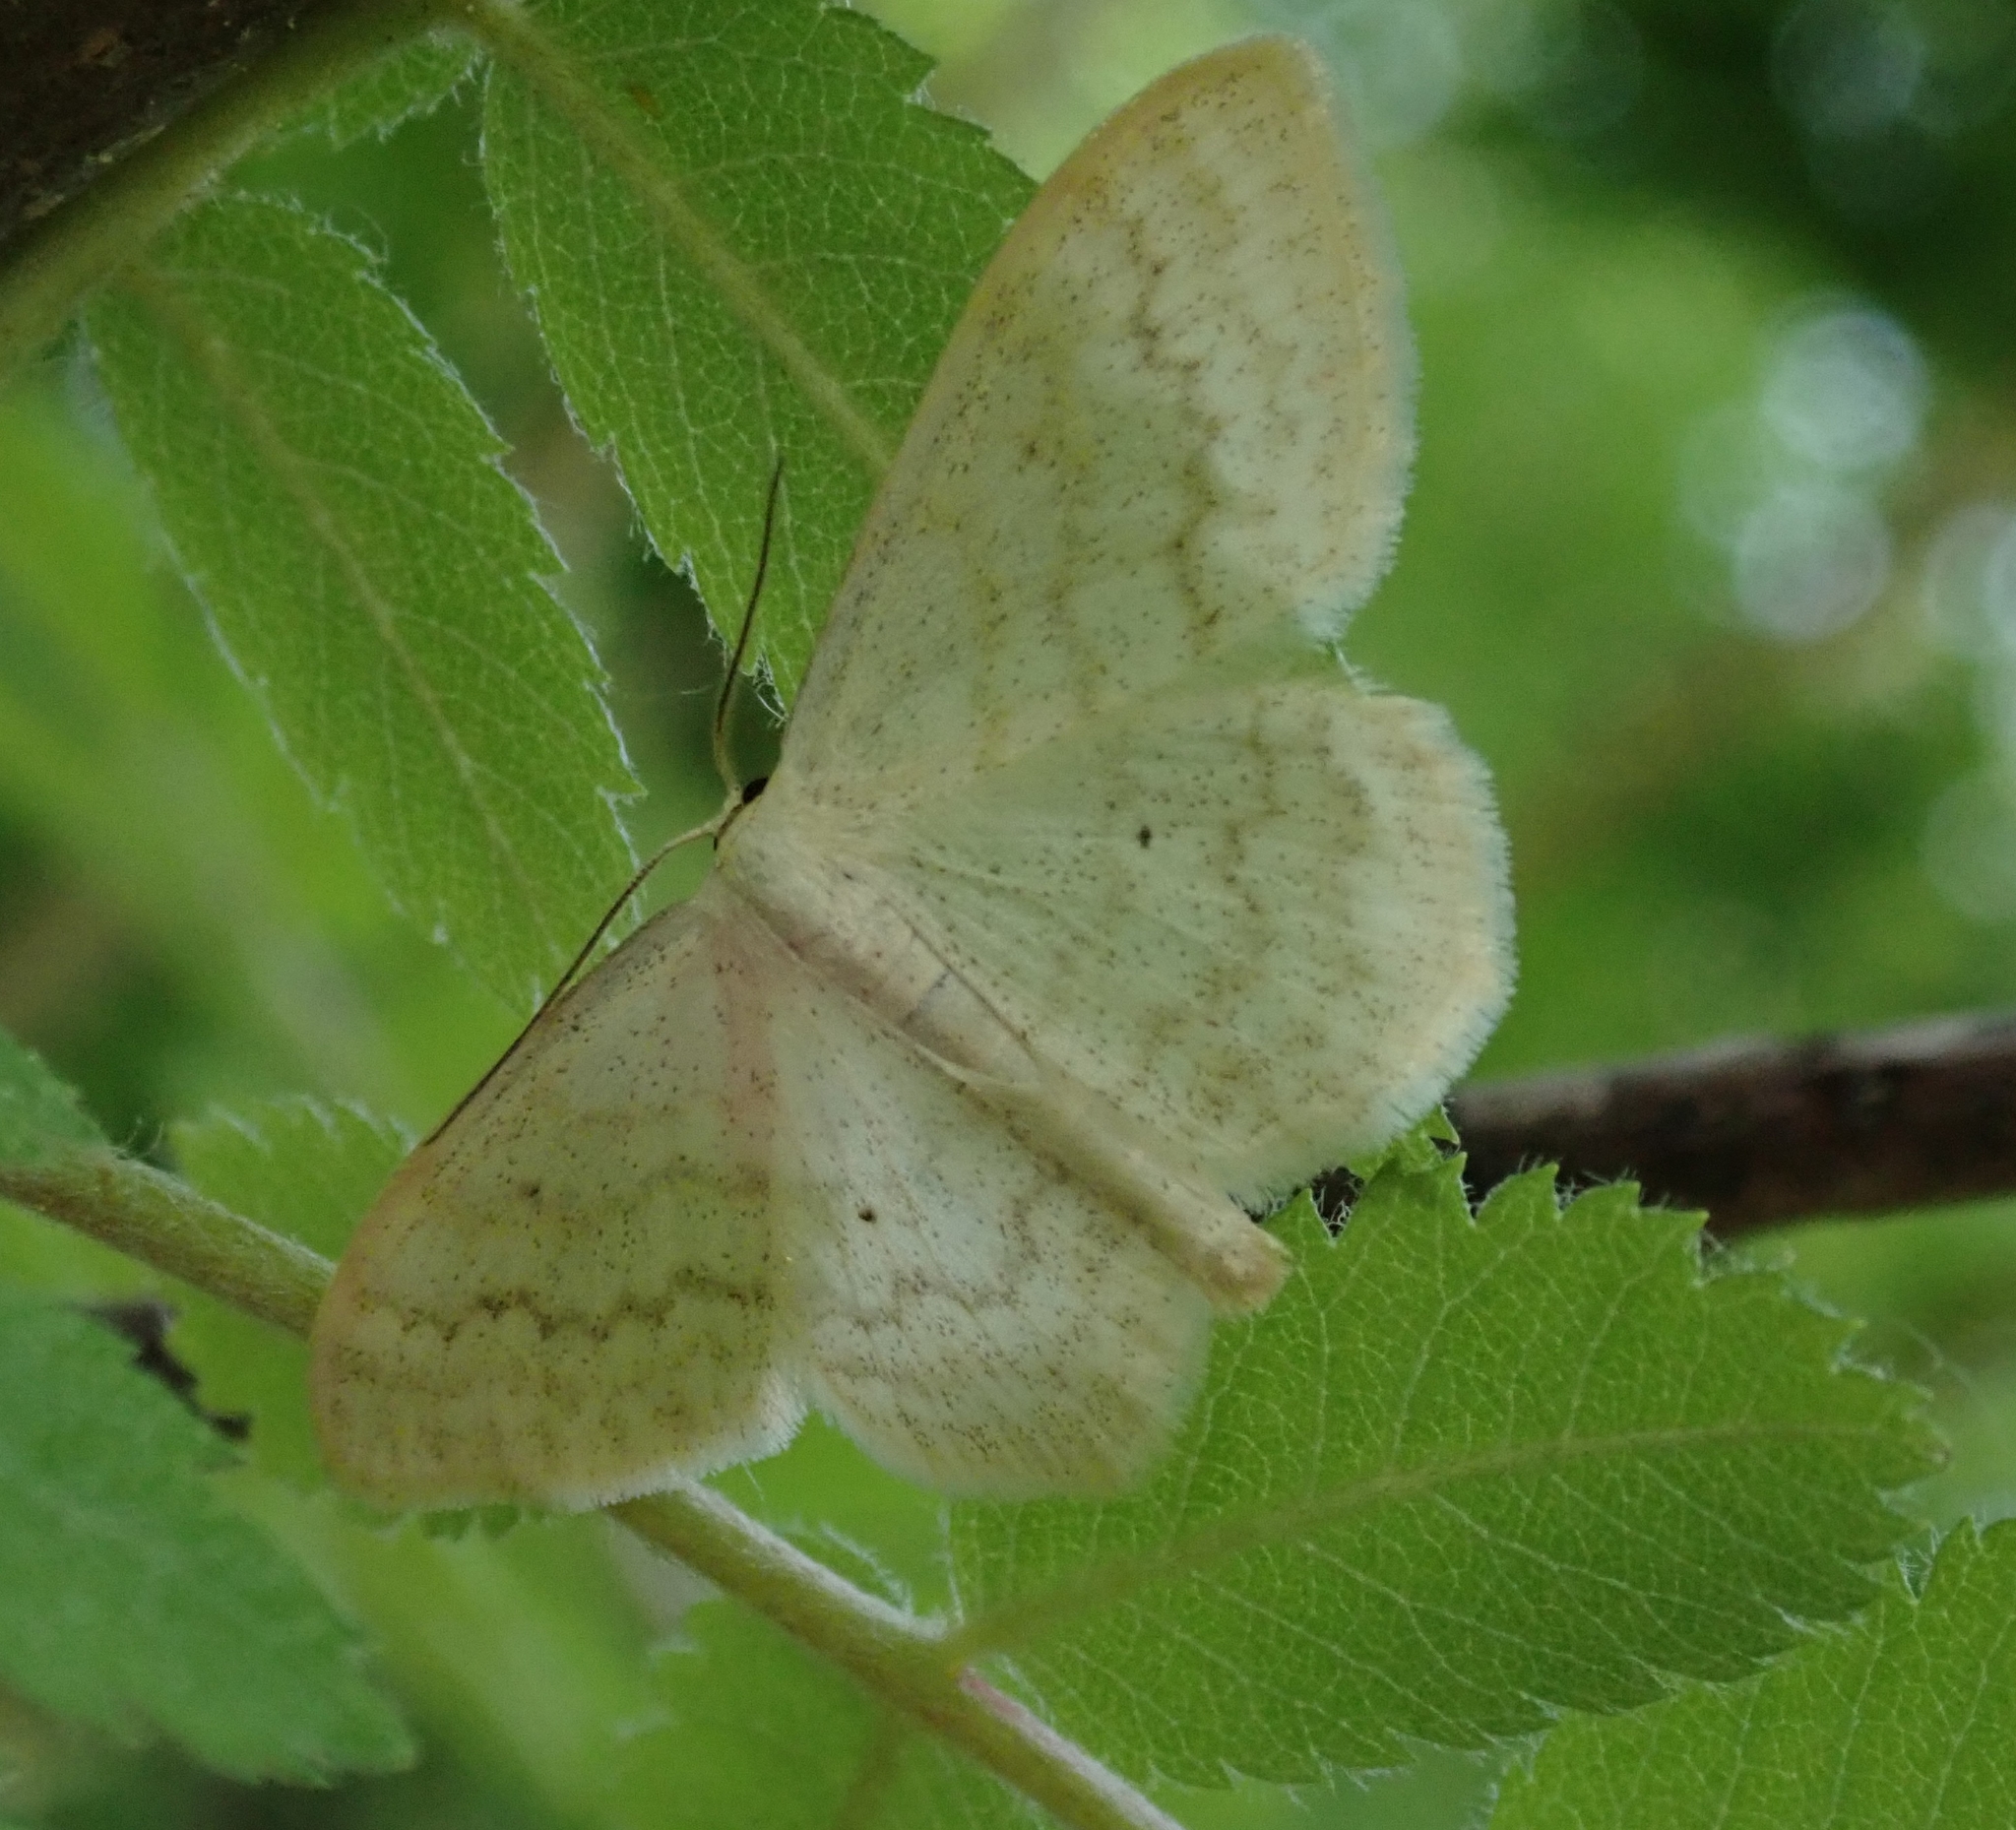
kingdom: Animalia
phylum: Arthropoda
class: Insecta
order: Lepidoptera
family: Geometridae
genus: Scopula
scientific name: Scopula floslactata
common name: Cream wave
